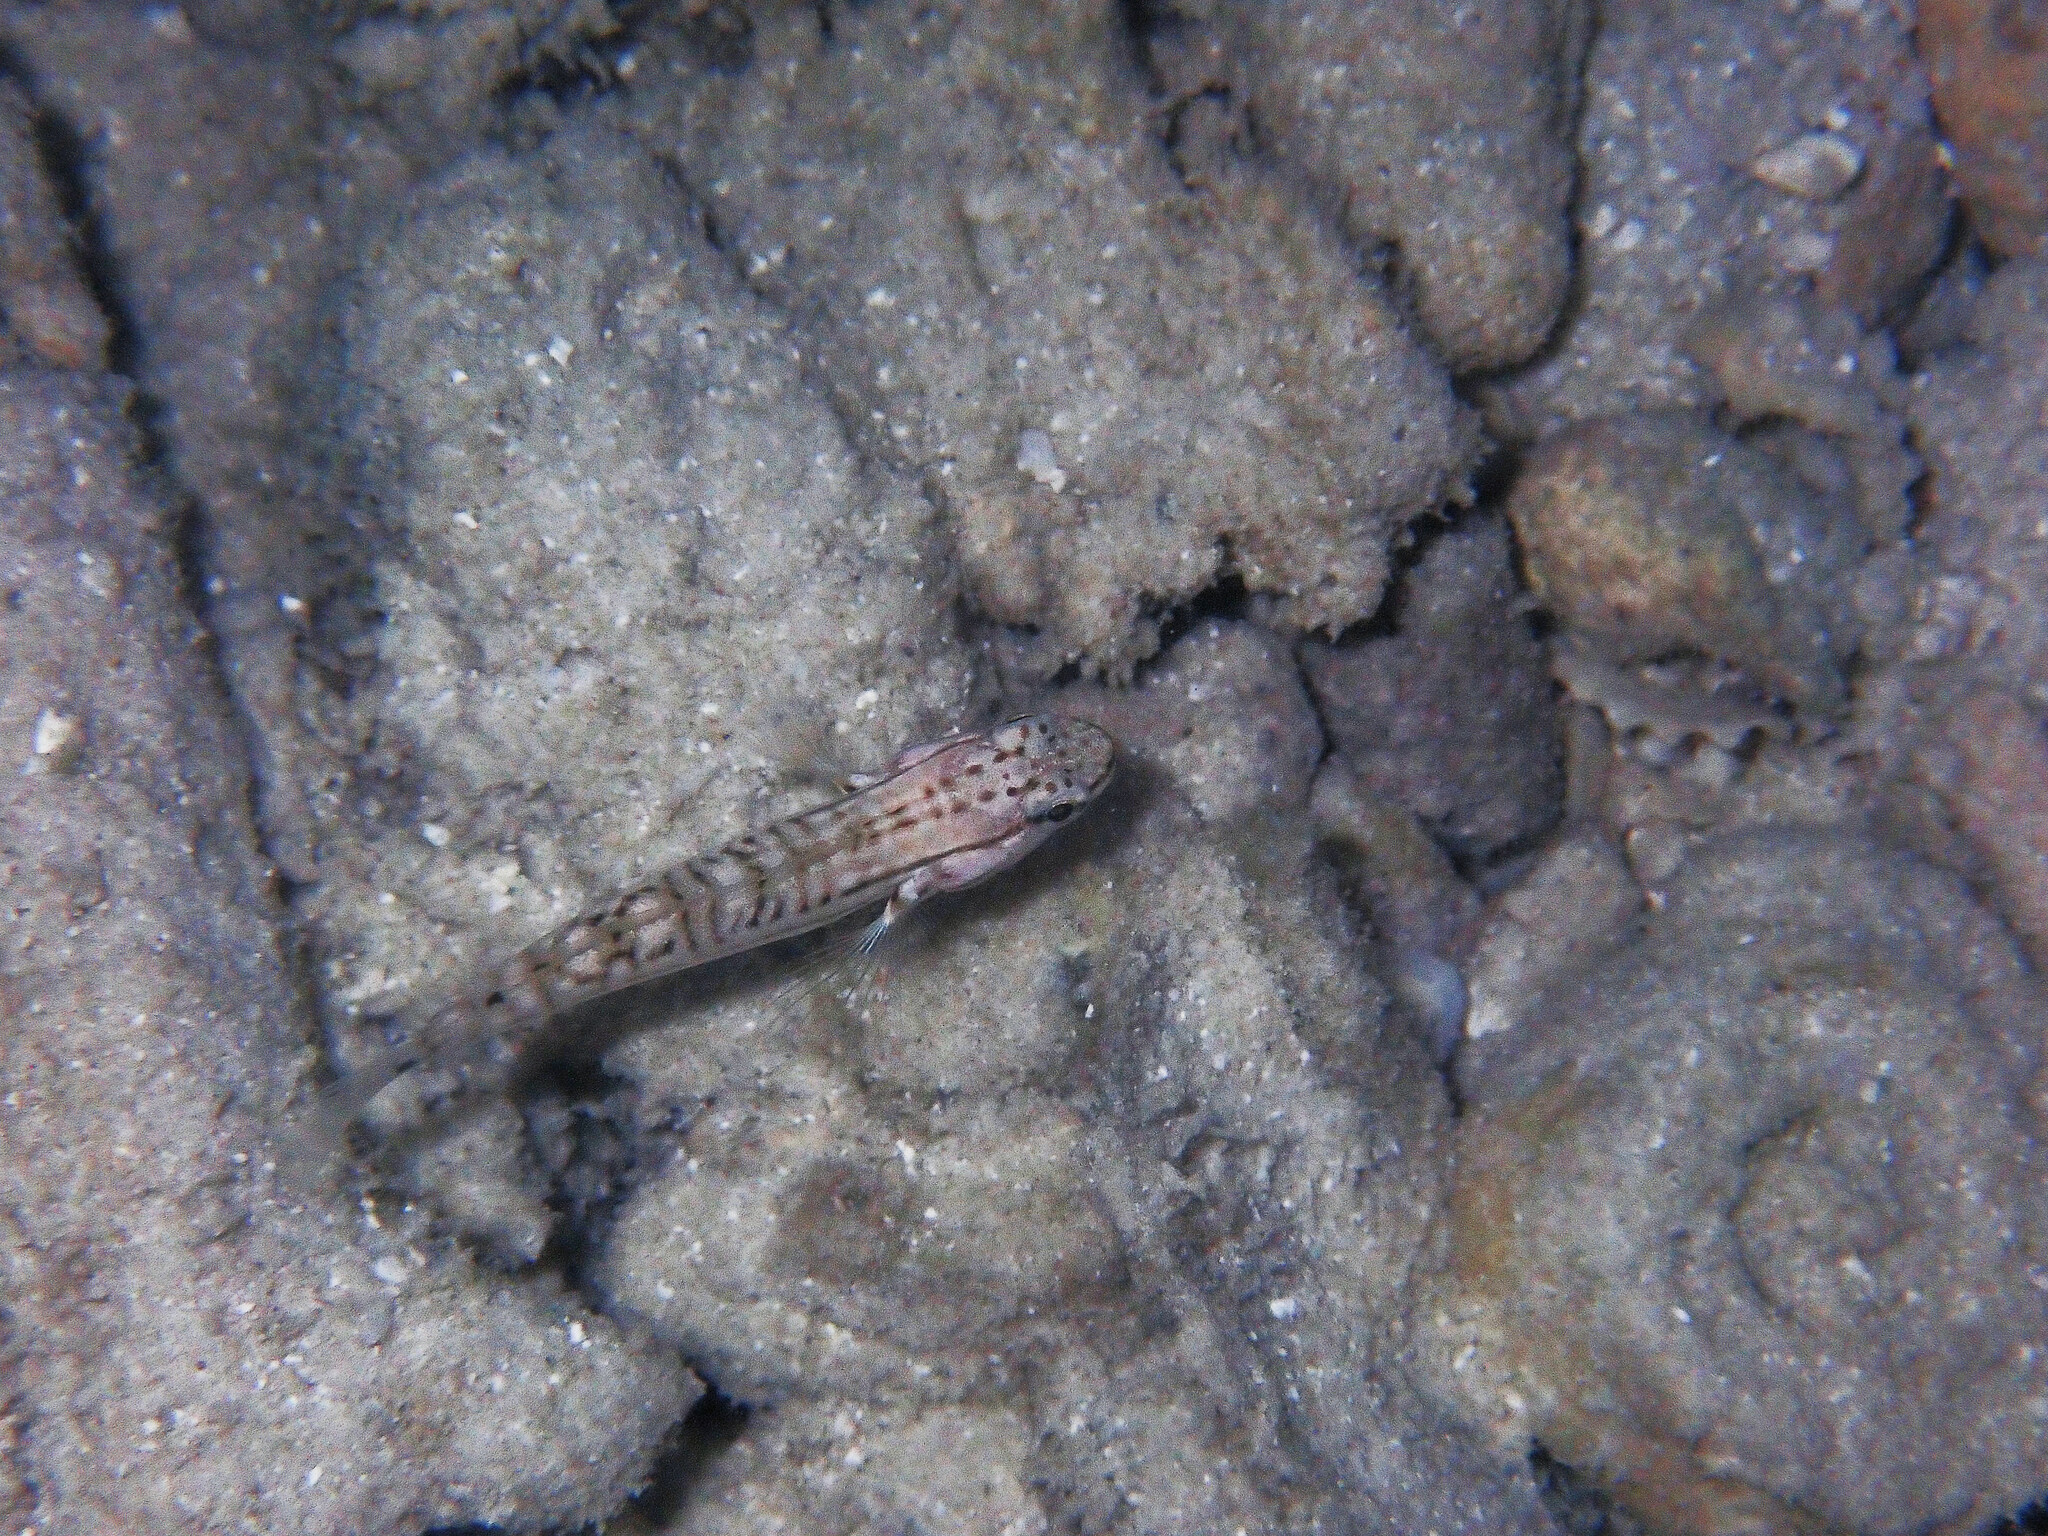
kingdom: Animalia
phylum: Chordata
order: Perciformes
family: Gobiidae
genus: Amblygobius
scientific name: Amblygobius stethophthalmus
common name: Freckled goby
